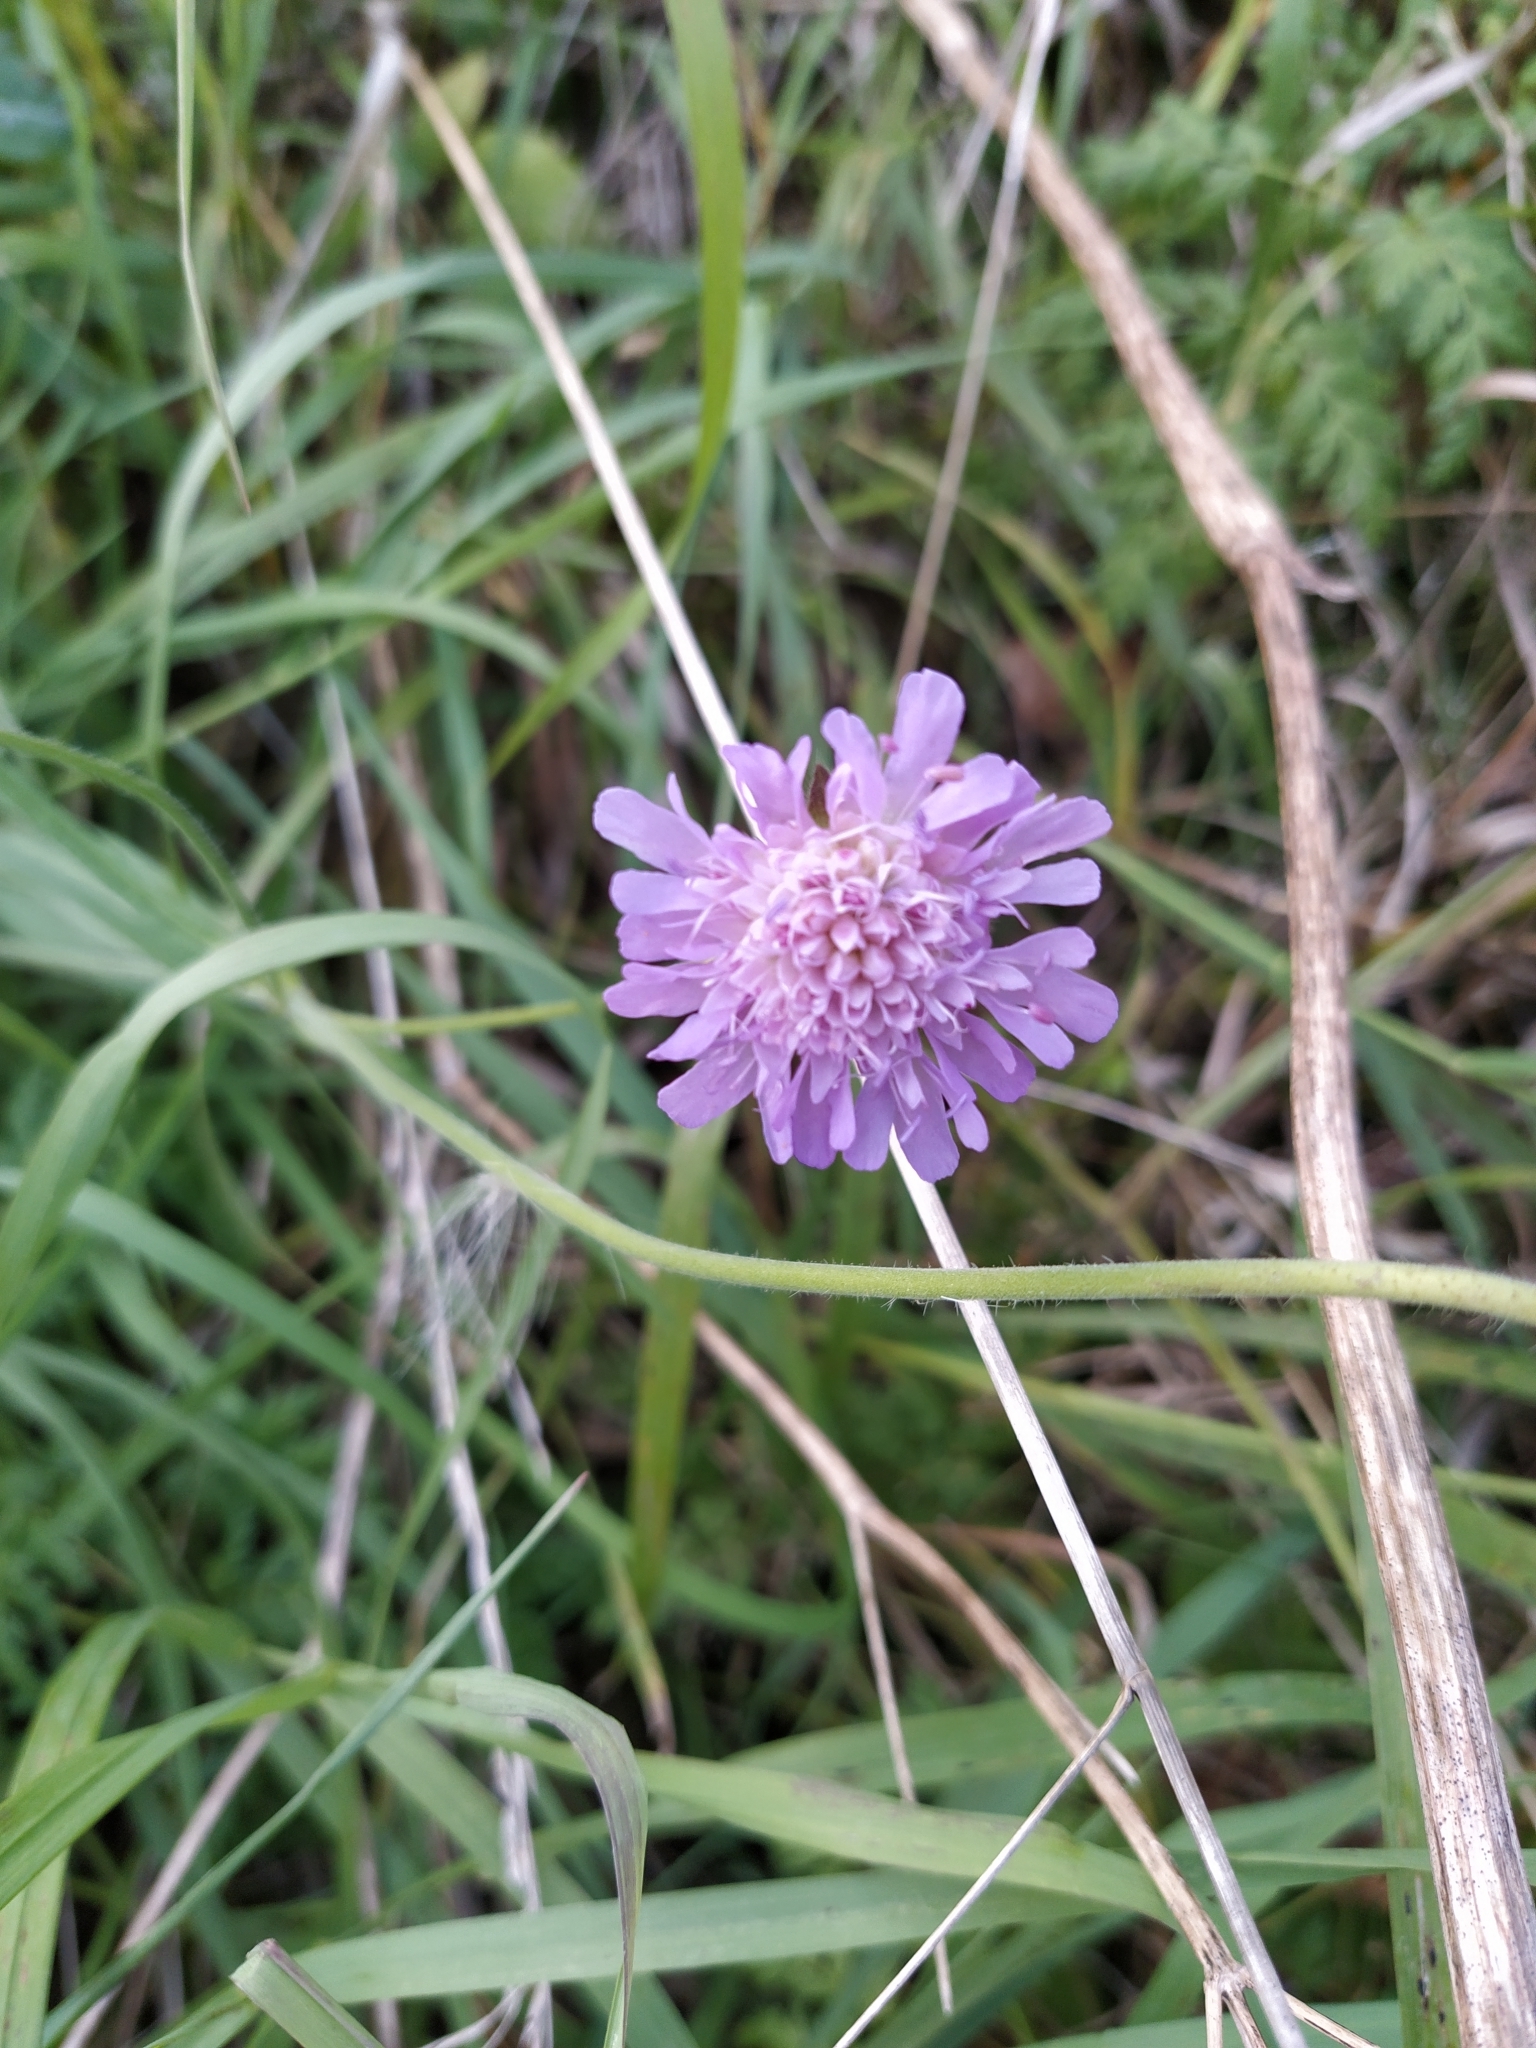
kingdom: Plantae
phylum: Tracheophyta
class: Magnoliopsida
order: Dipsacales
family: Caprifoliaceae
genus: Knautia
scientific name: Knautia arvensis
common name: Field scabiosa
